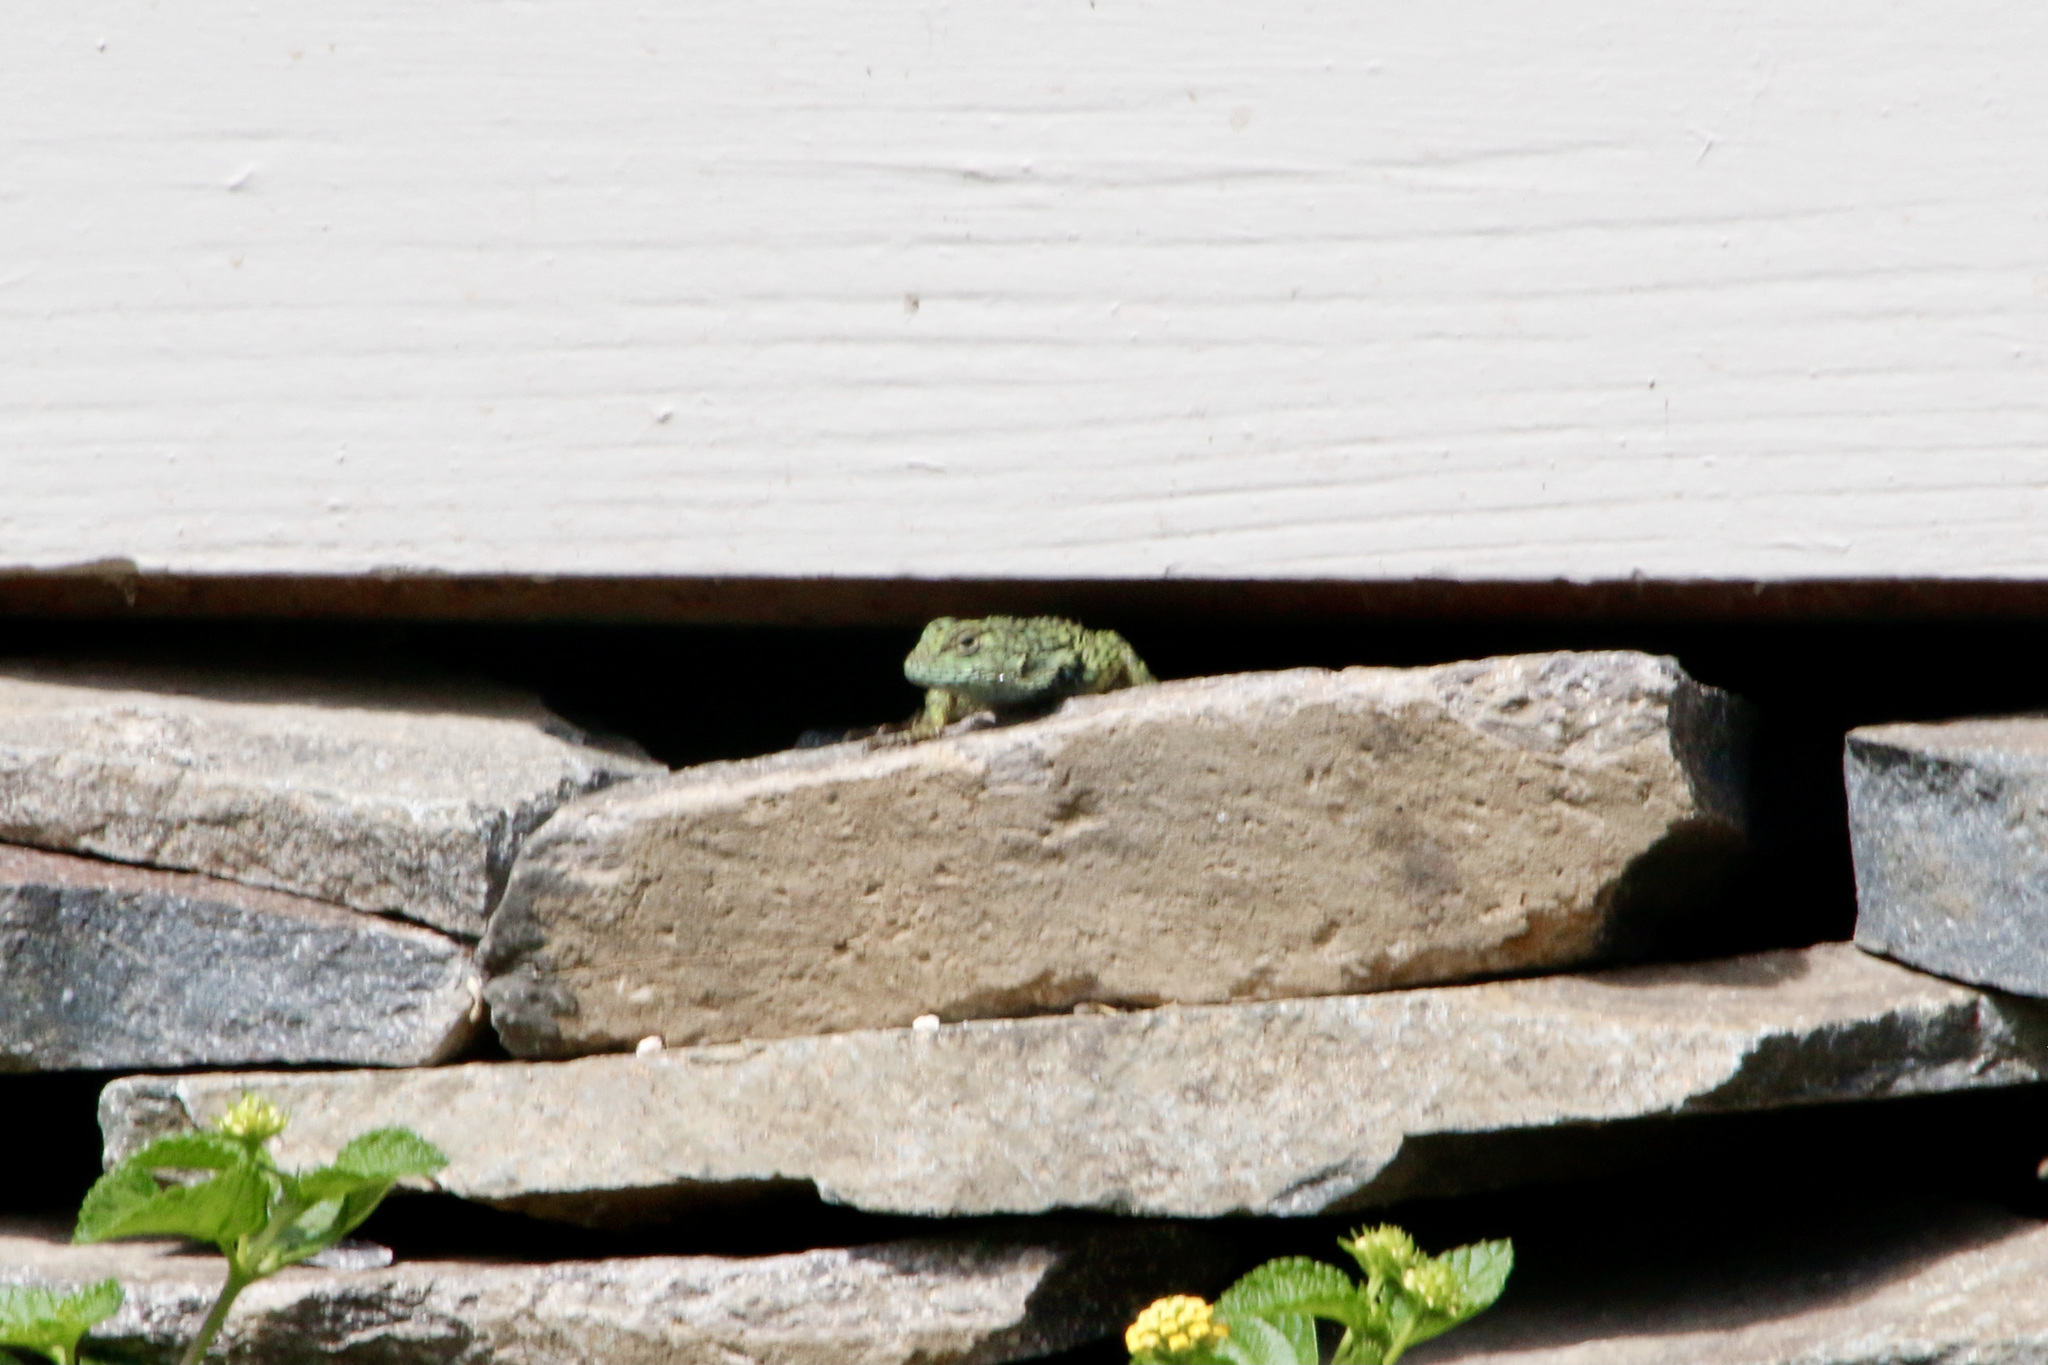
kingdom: Animalia
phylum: Chordata
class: Squamata
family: Phrynosomatidae
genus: Sceloporus
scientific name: Sceloporus malachiticus
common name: Green spiny lizard
